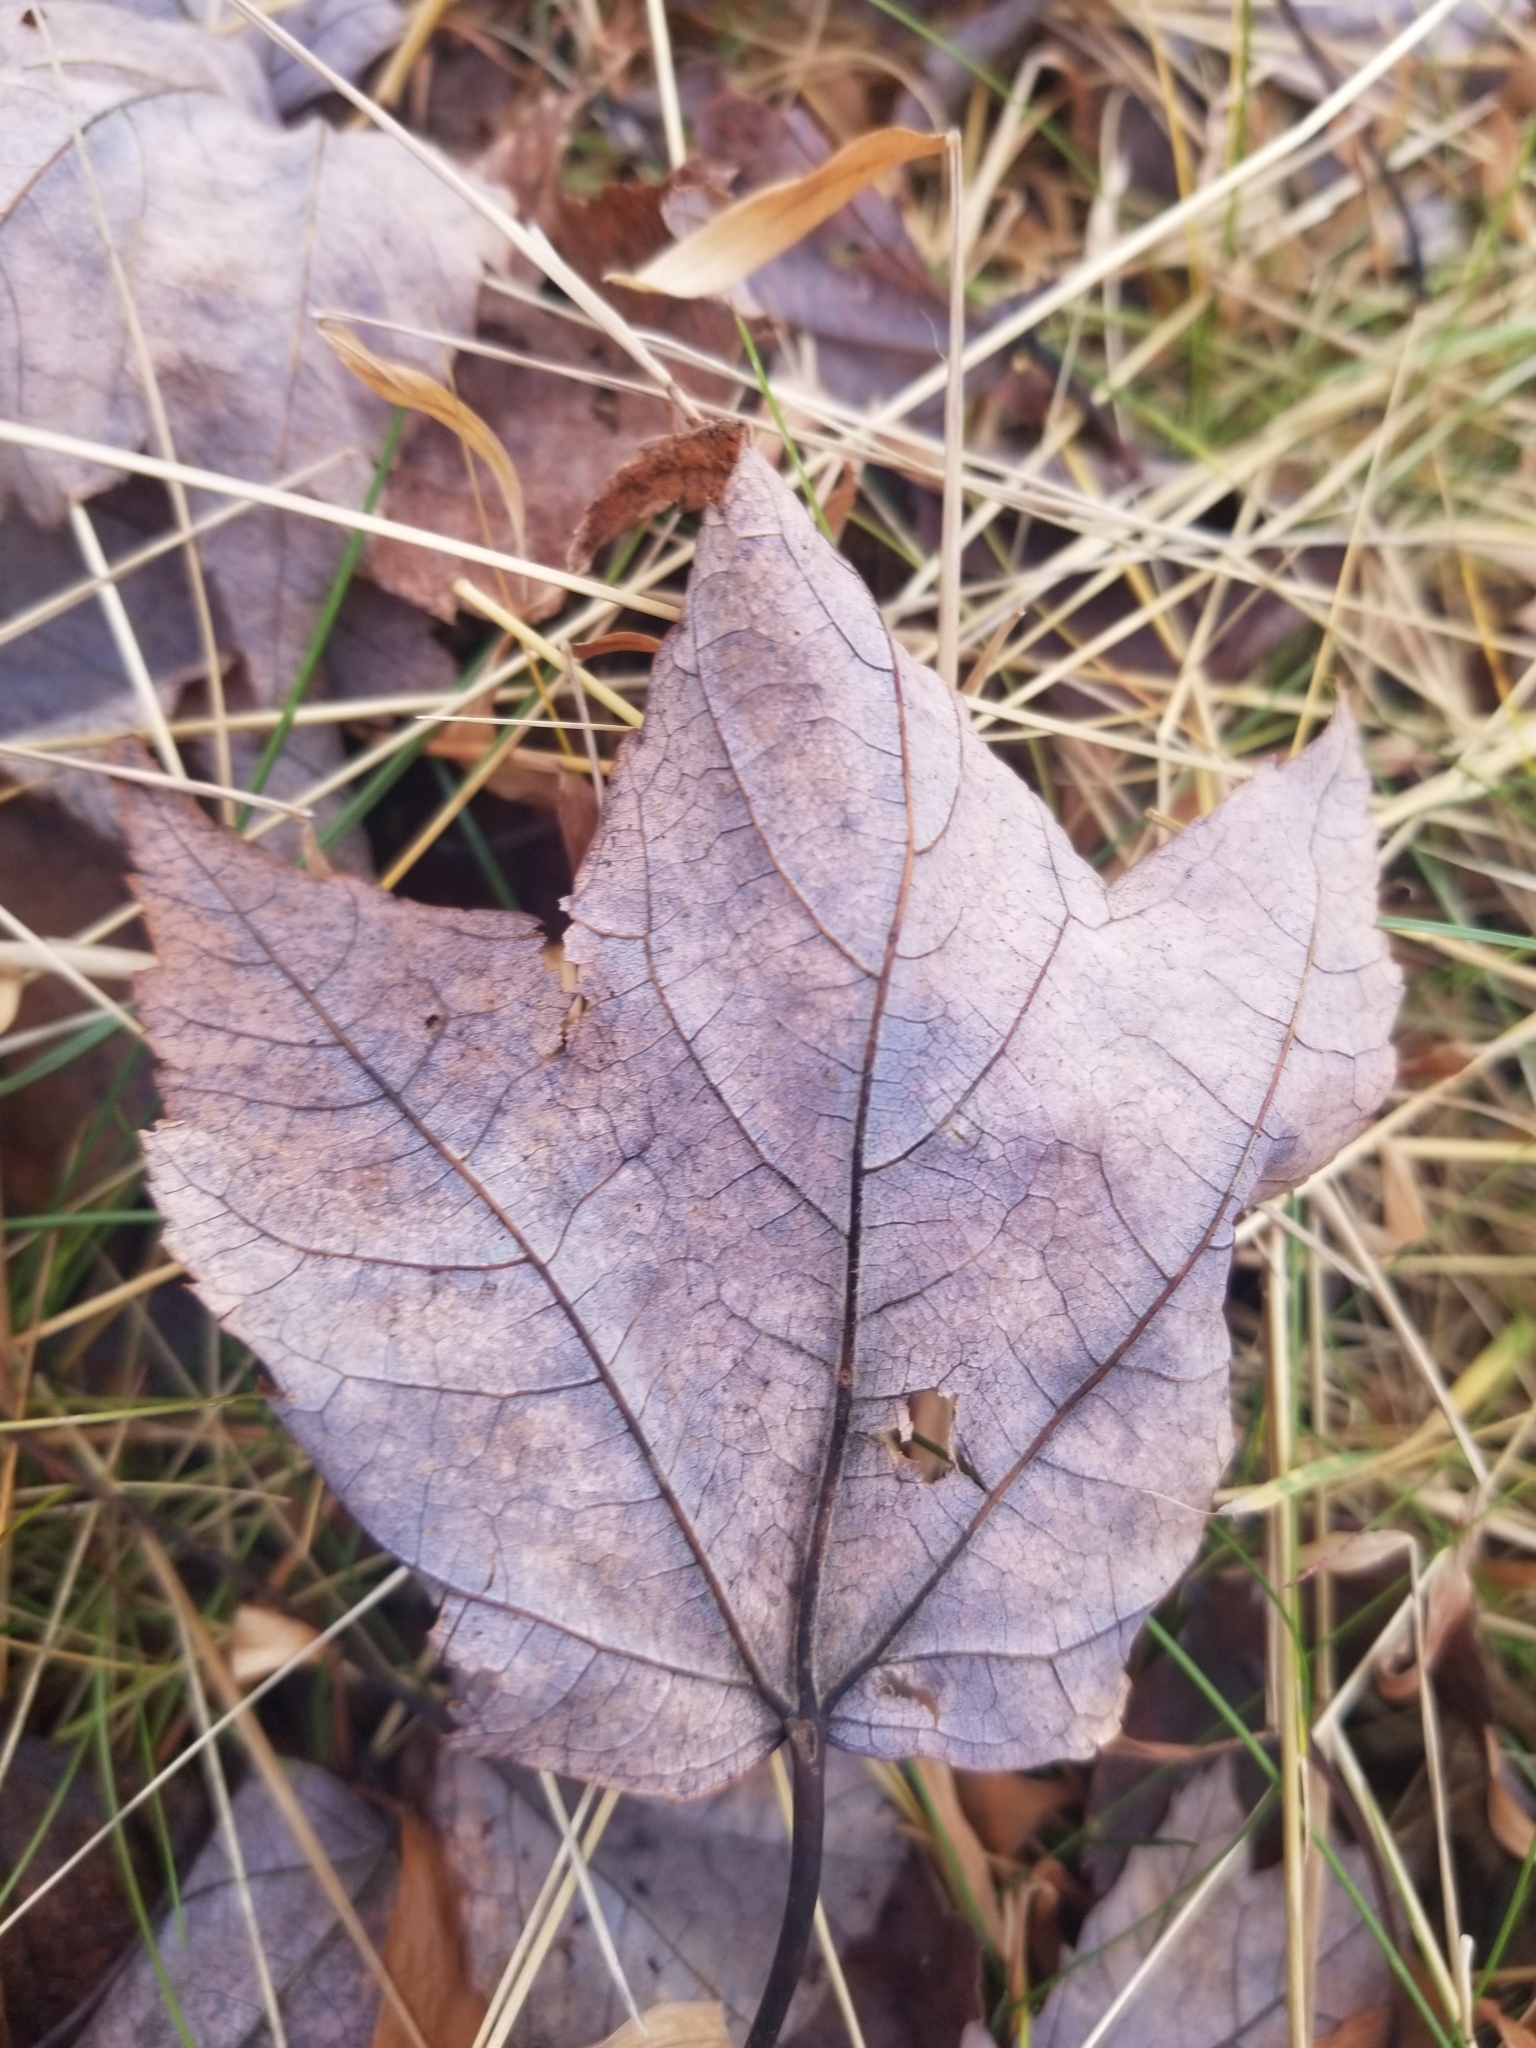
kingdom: Plantae
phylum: Tracheophyta
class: Magnoliopsida
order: Sapindales
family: Sapindaceae
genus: Acer
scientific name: Acer rubrum
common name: Red maple
